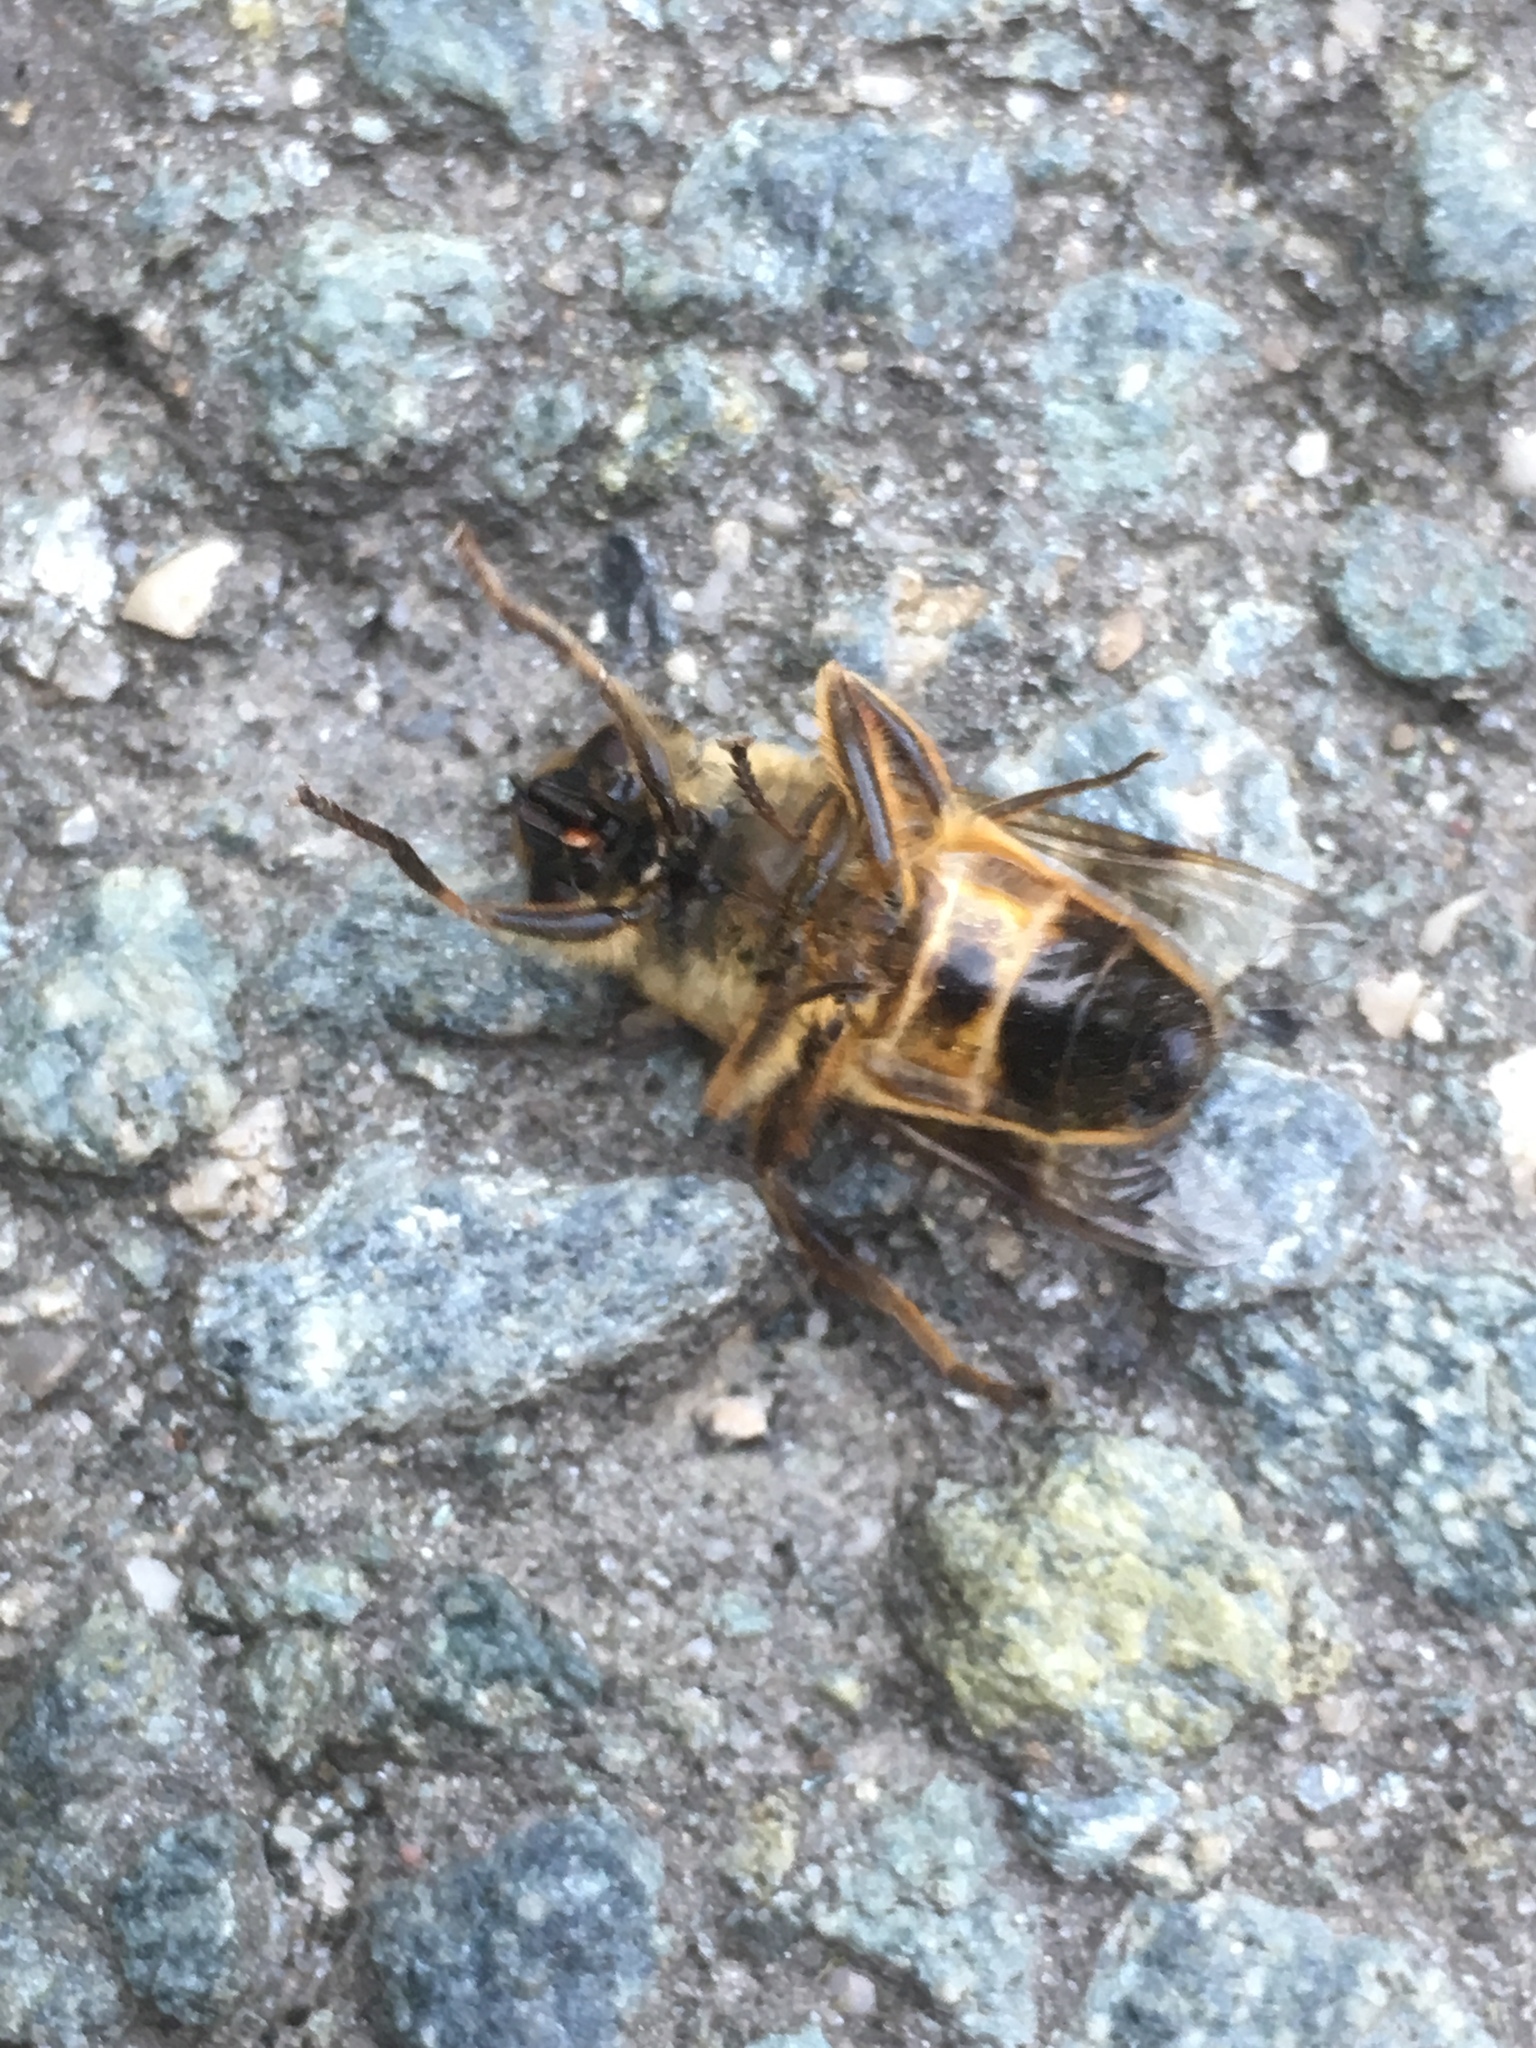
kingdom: Animalia
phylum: Arthropoda
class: Insecta
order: Diptera
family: Syrphidae
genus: Eristalis
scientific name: Eristalis tenax
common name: Drone fly
